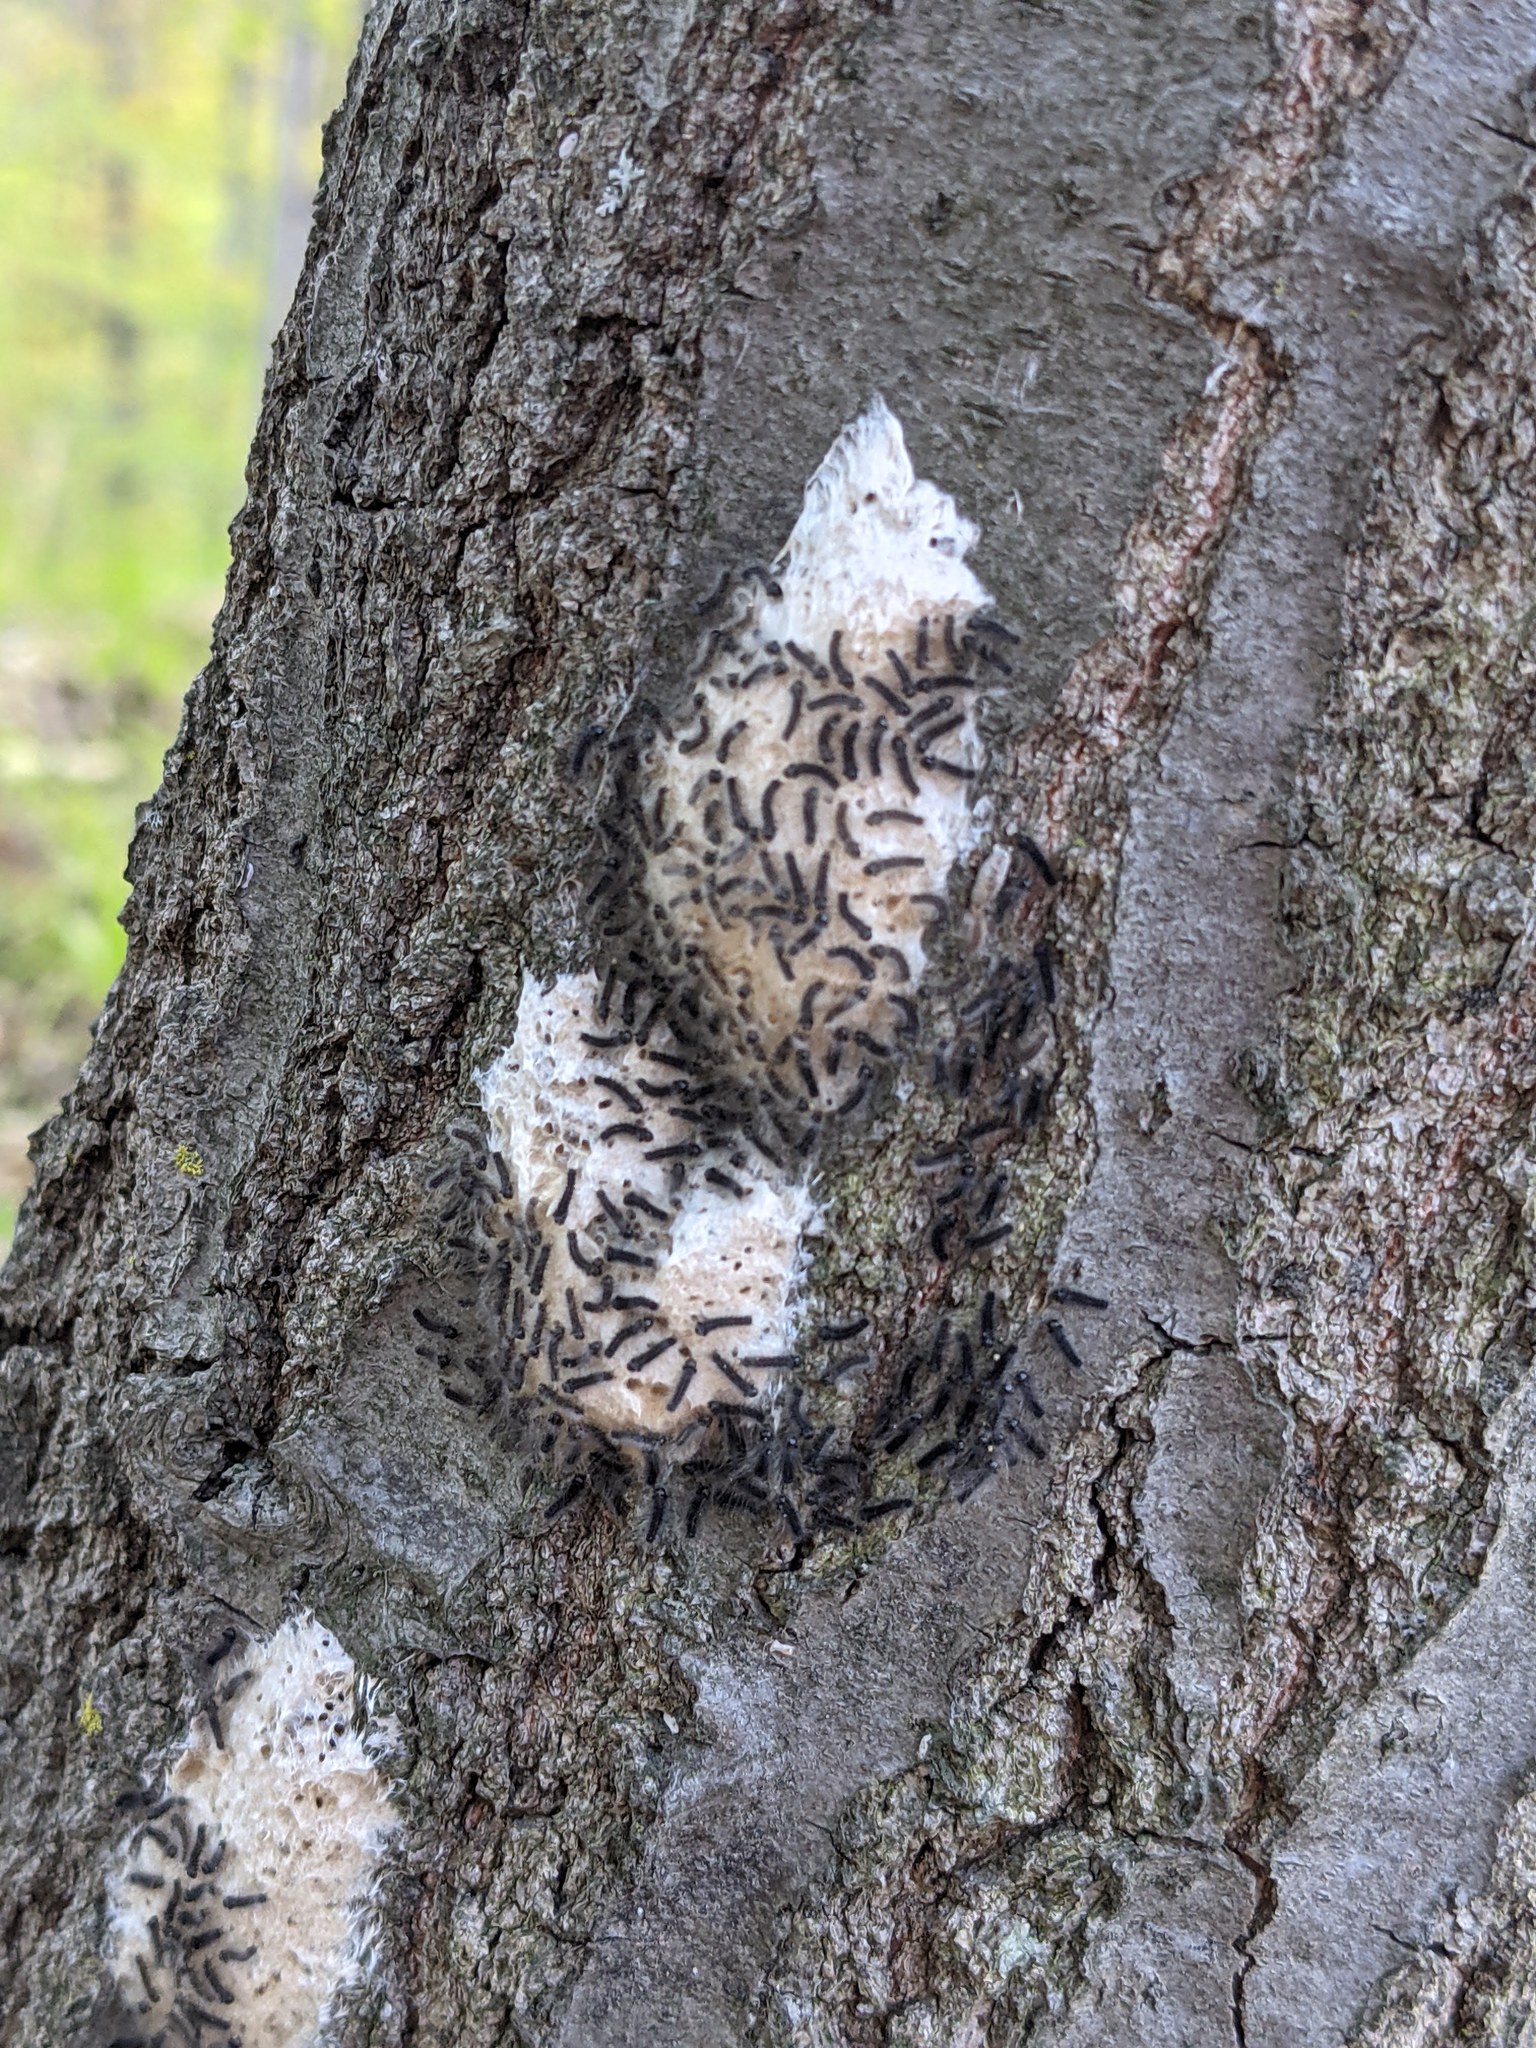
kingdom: Animalia
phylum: Arthropoda
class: Insecta
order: Lepidoptera
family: Erebidae
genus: Lymantria
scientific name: Lymantria dispar
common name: Gypsy moth
